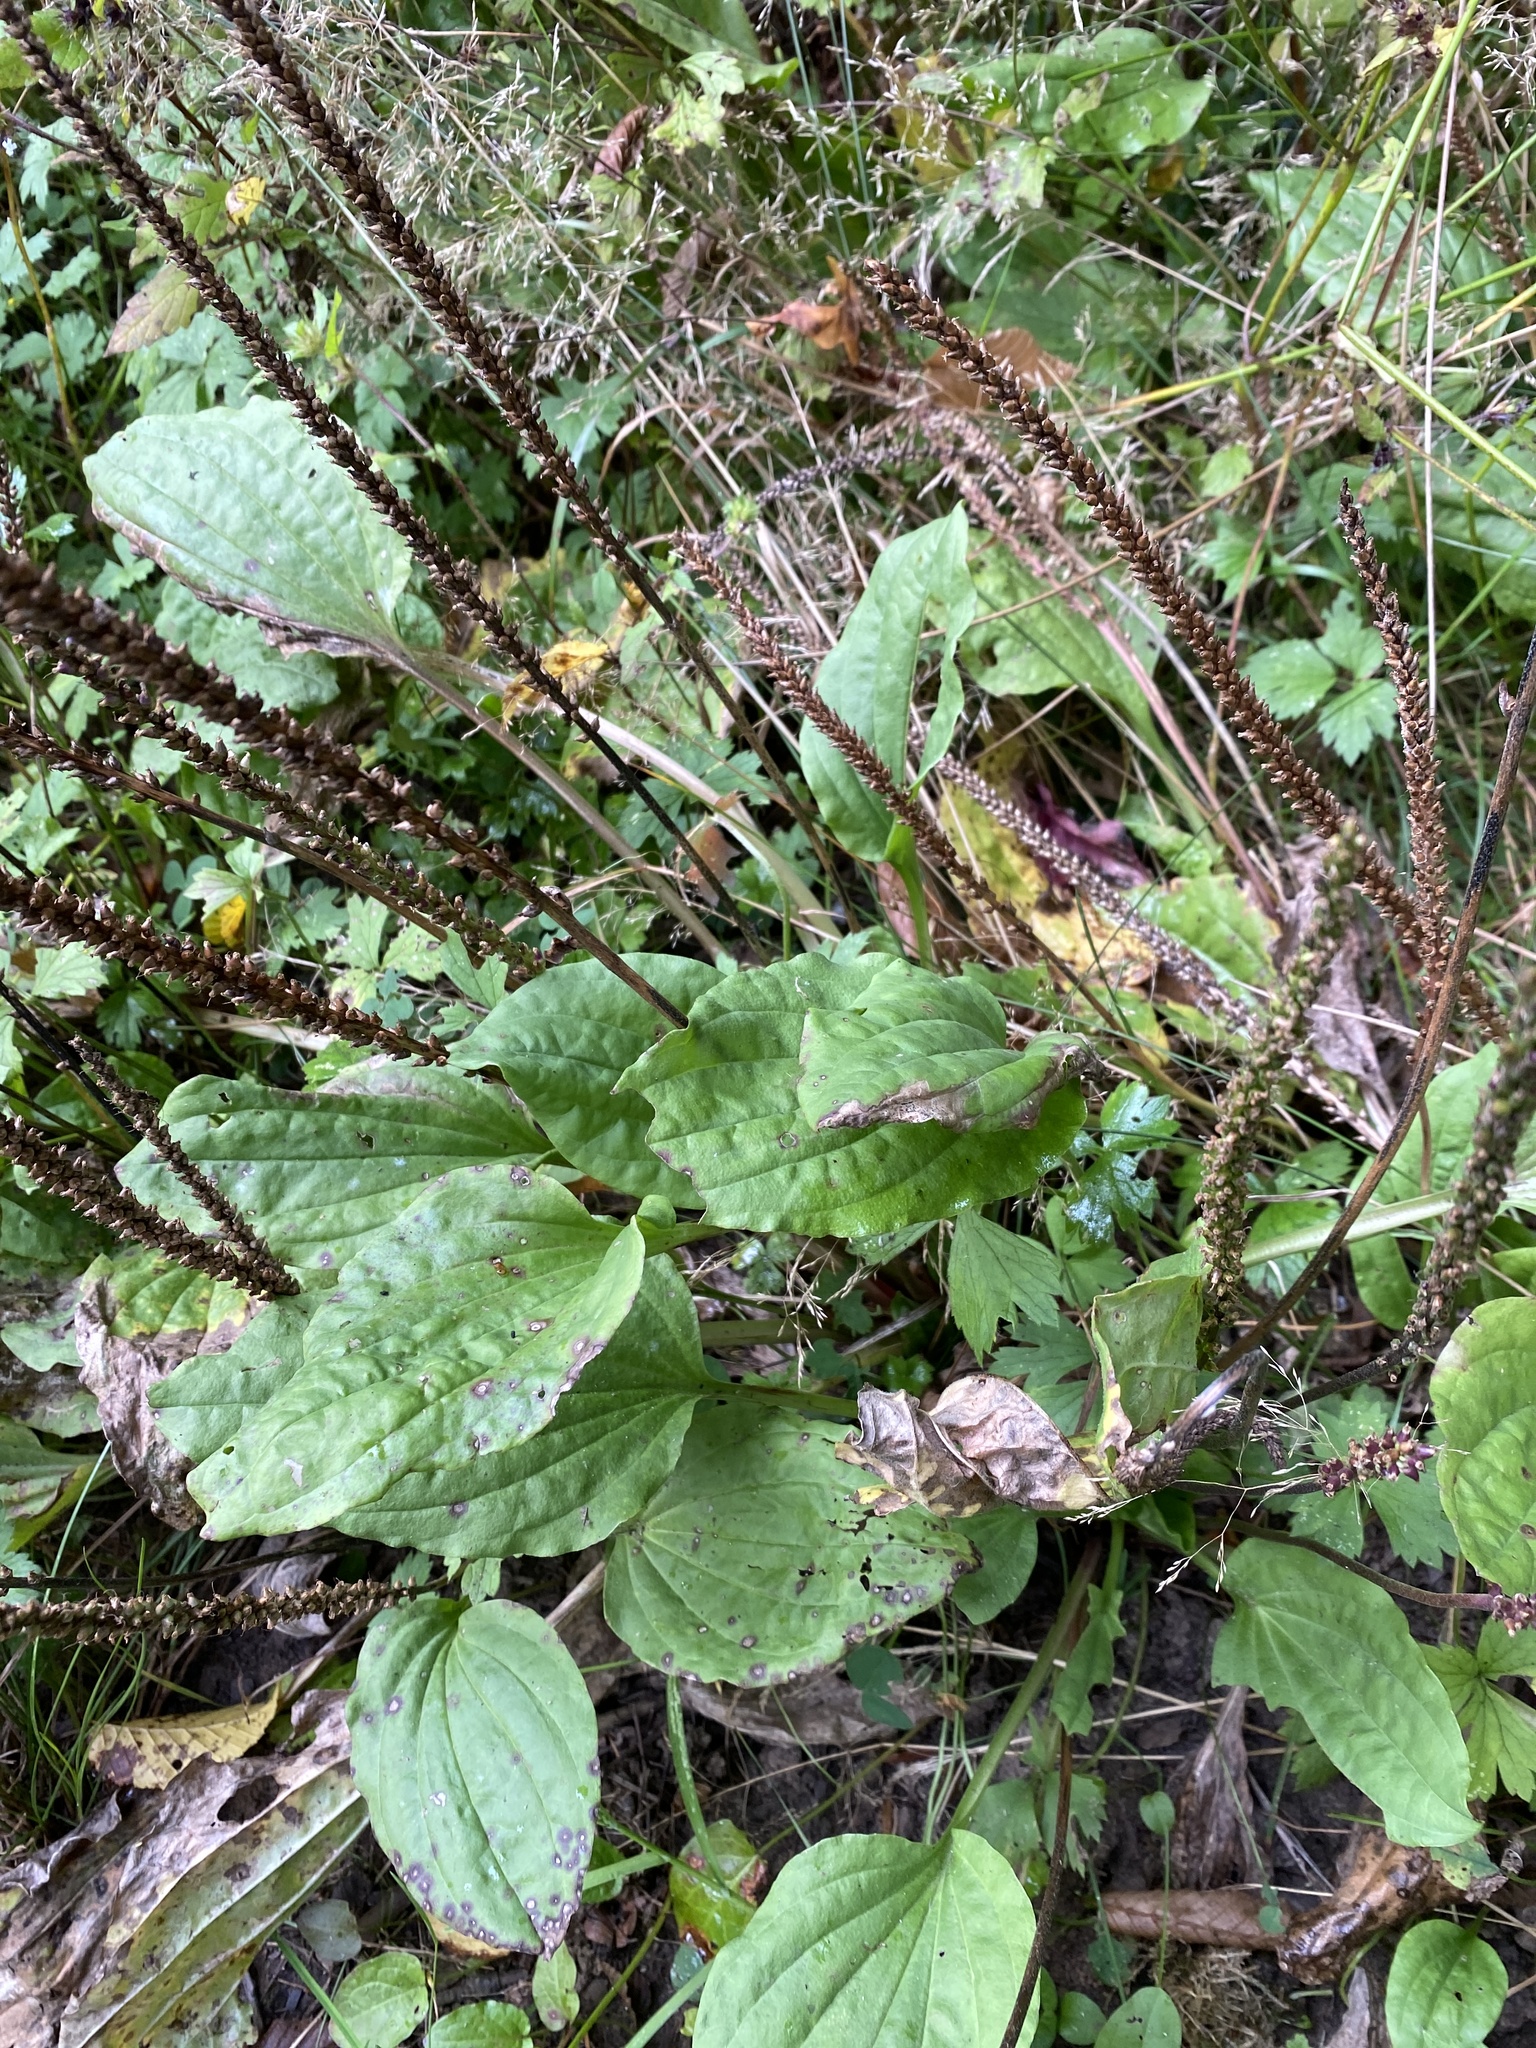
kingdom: Plantae
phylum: Tracheophyta
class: Magnoliopsida
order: Lamiales
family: Plantaginaceae
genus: Plantago
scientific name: Plantago major
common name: Common plantain
